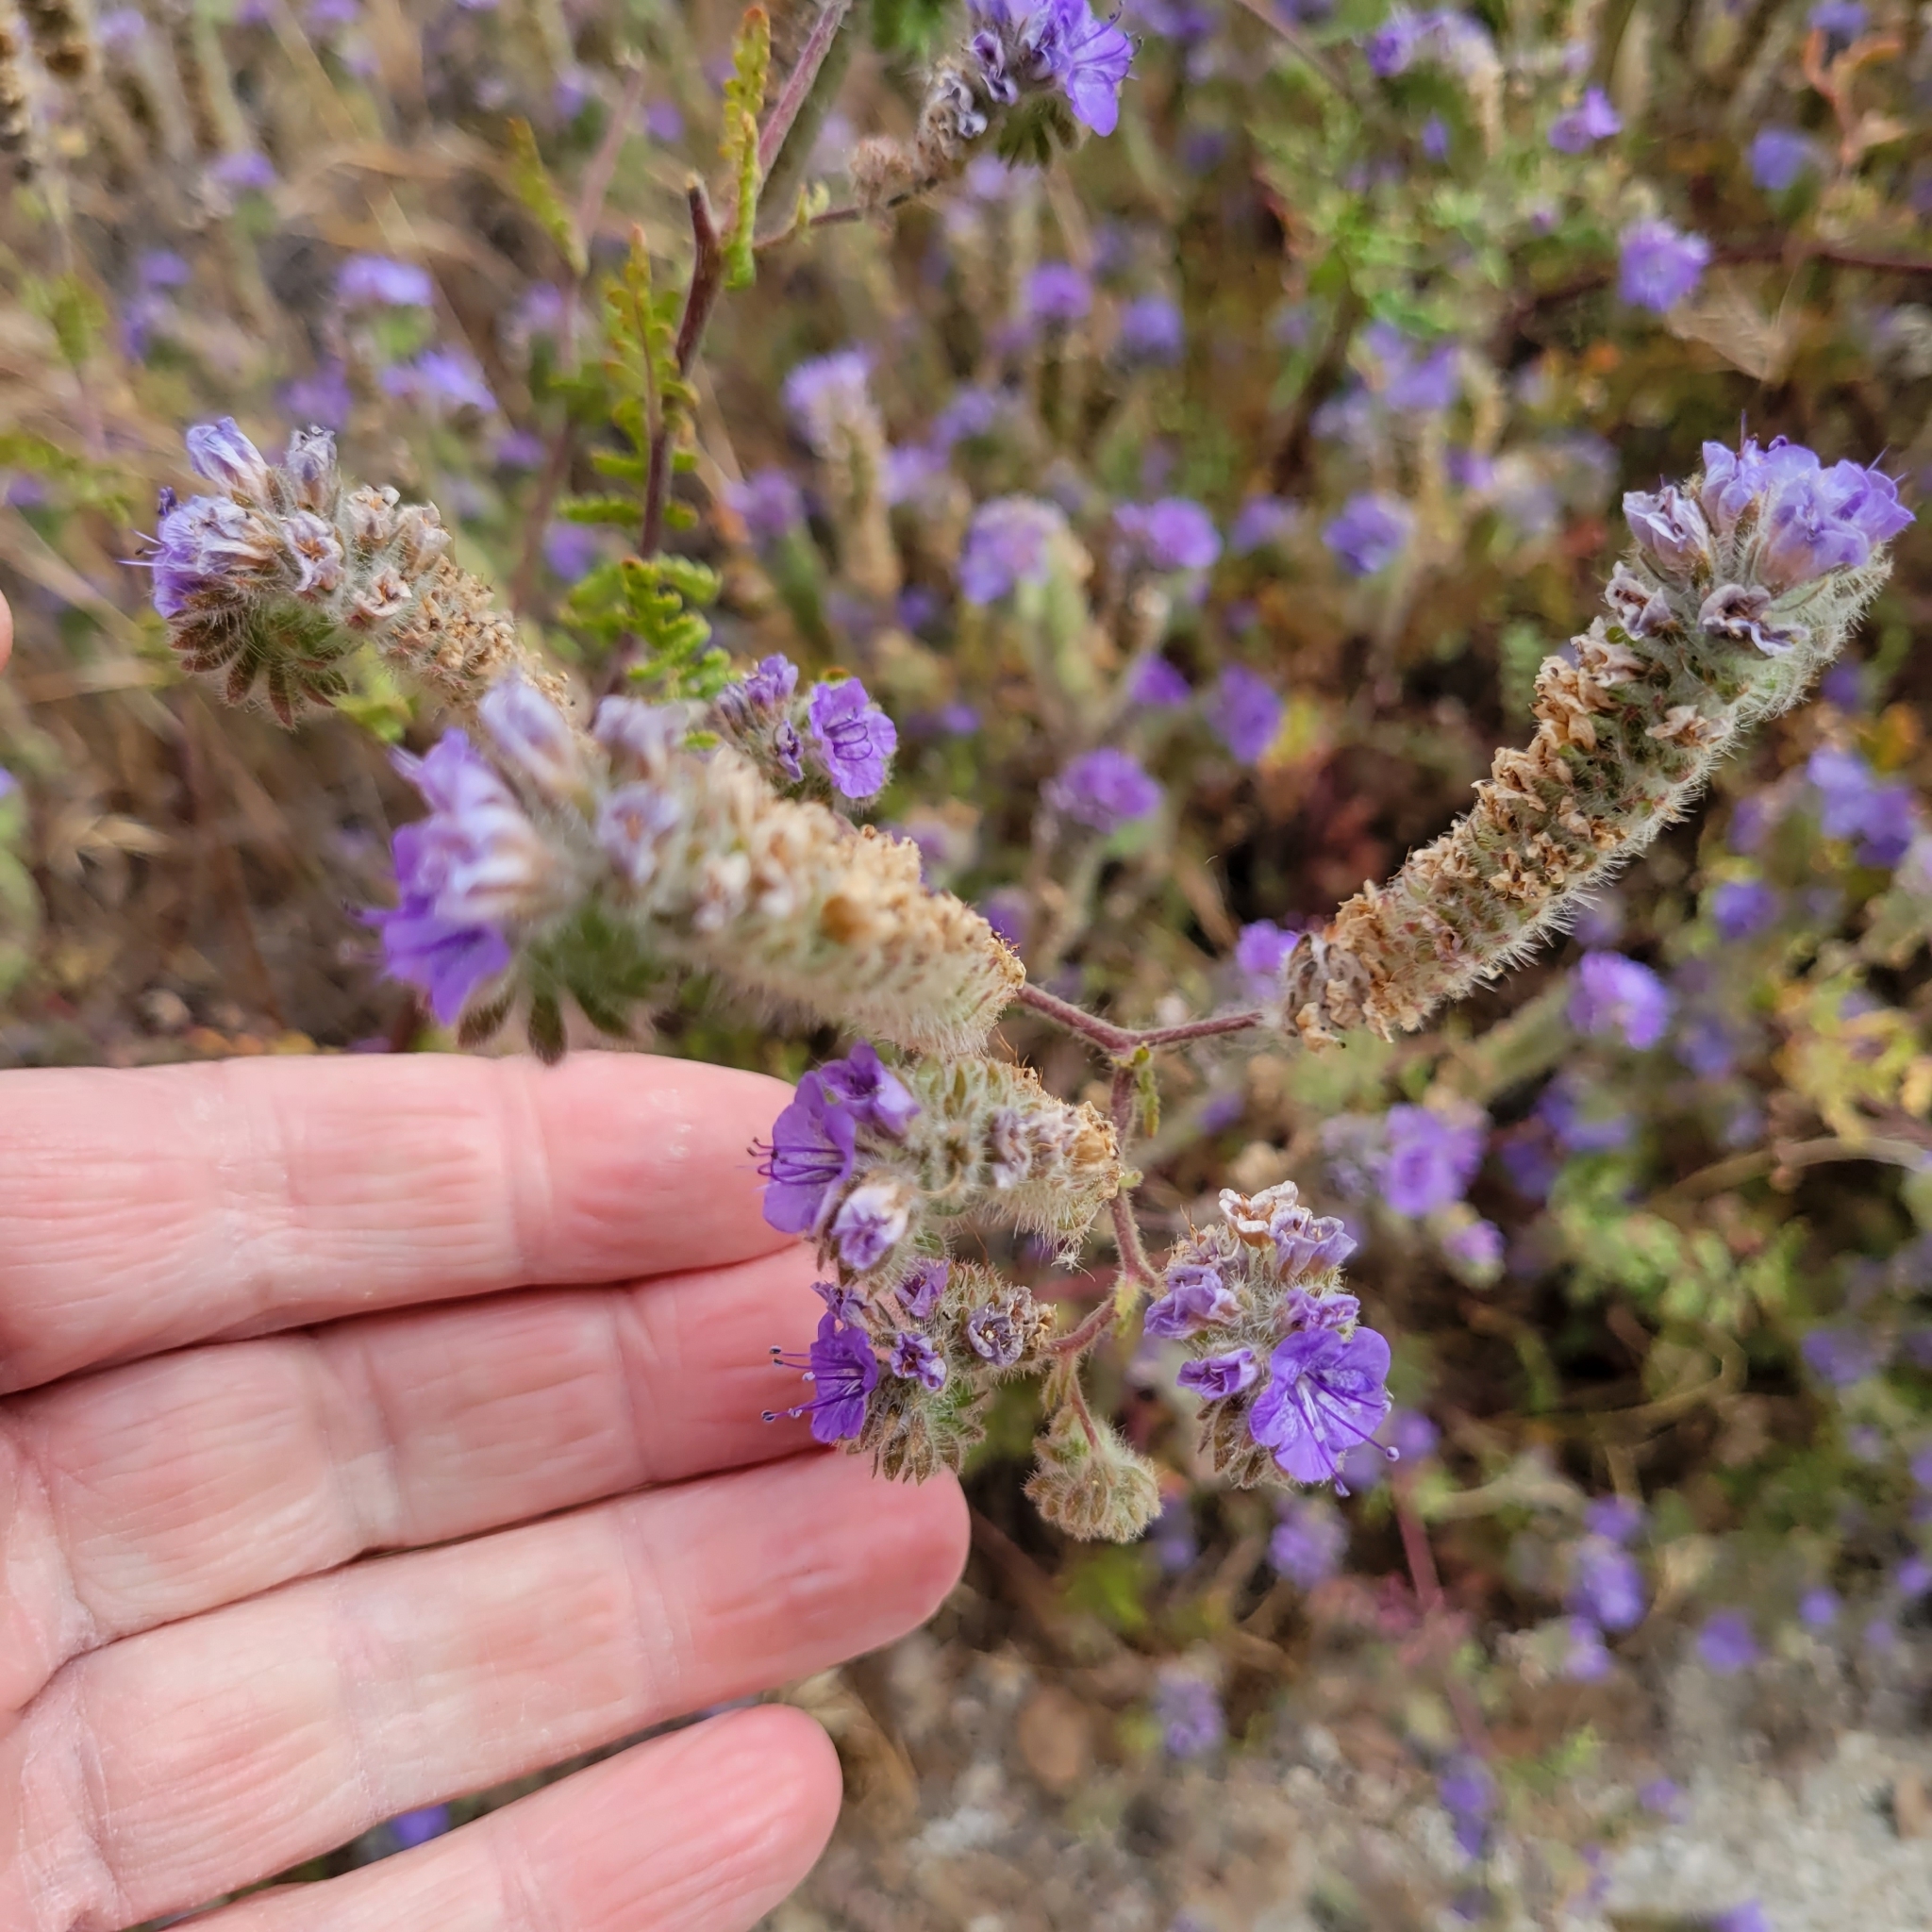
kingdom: Plantae
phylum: Tracheophyta
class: Magnoliopsida
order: Boraginales
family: Hydrophyllaceae
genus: Phacelia
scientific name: Phacelia distans
